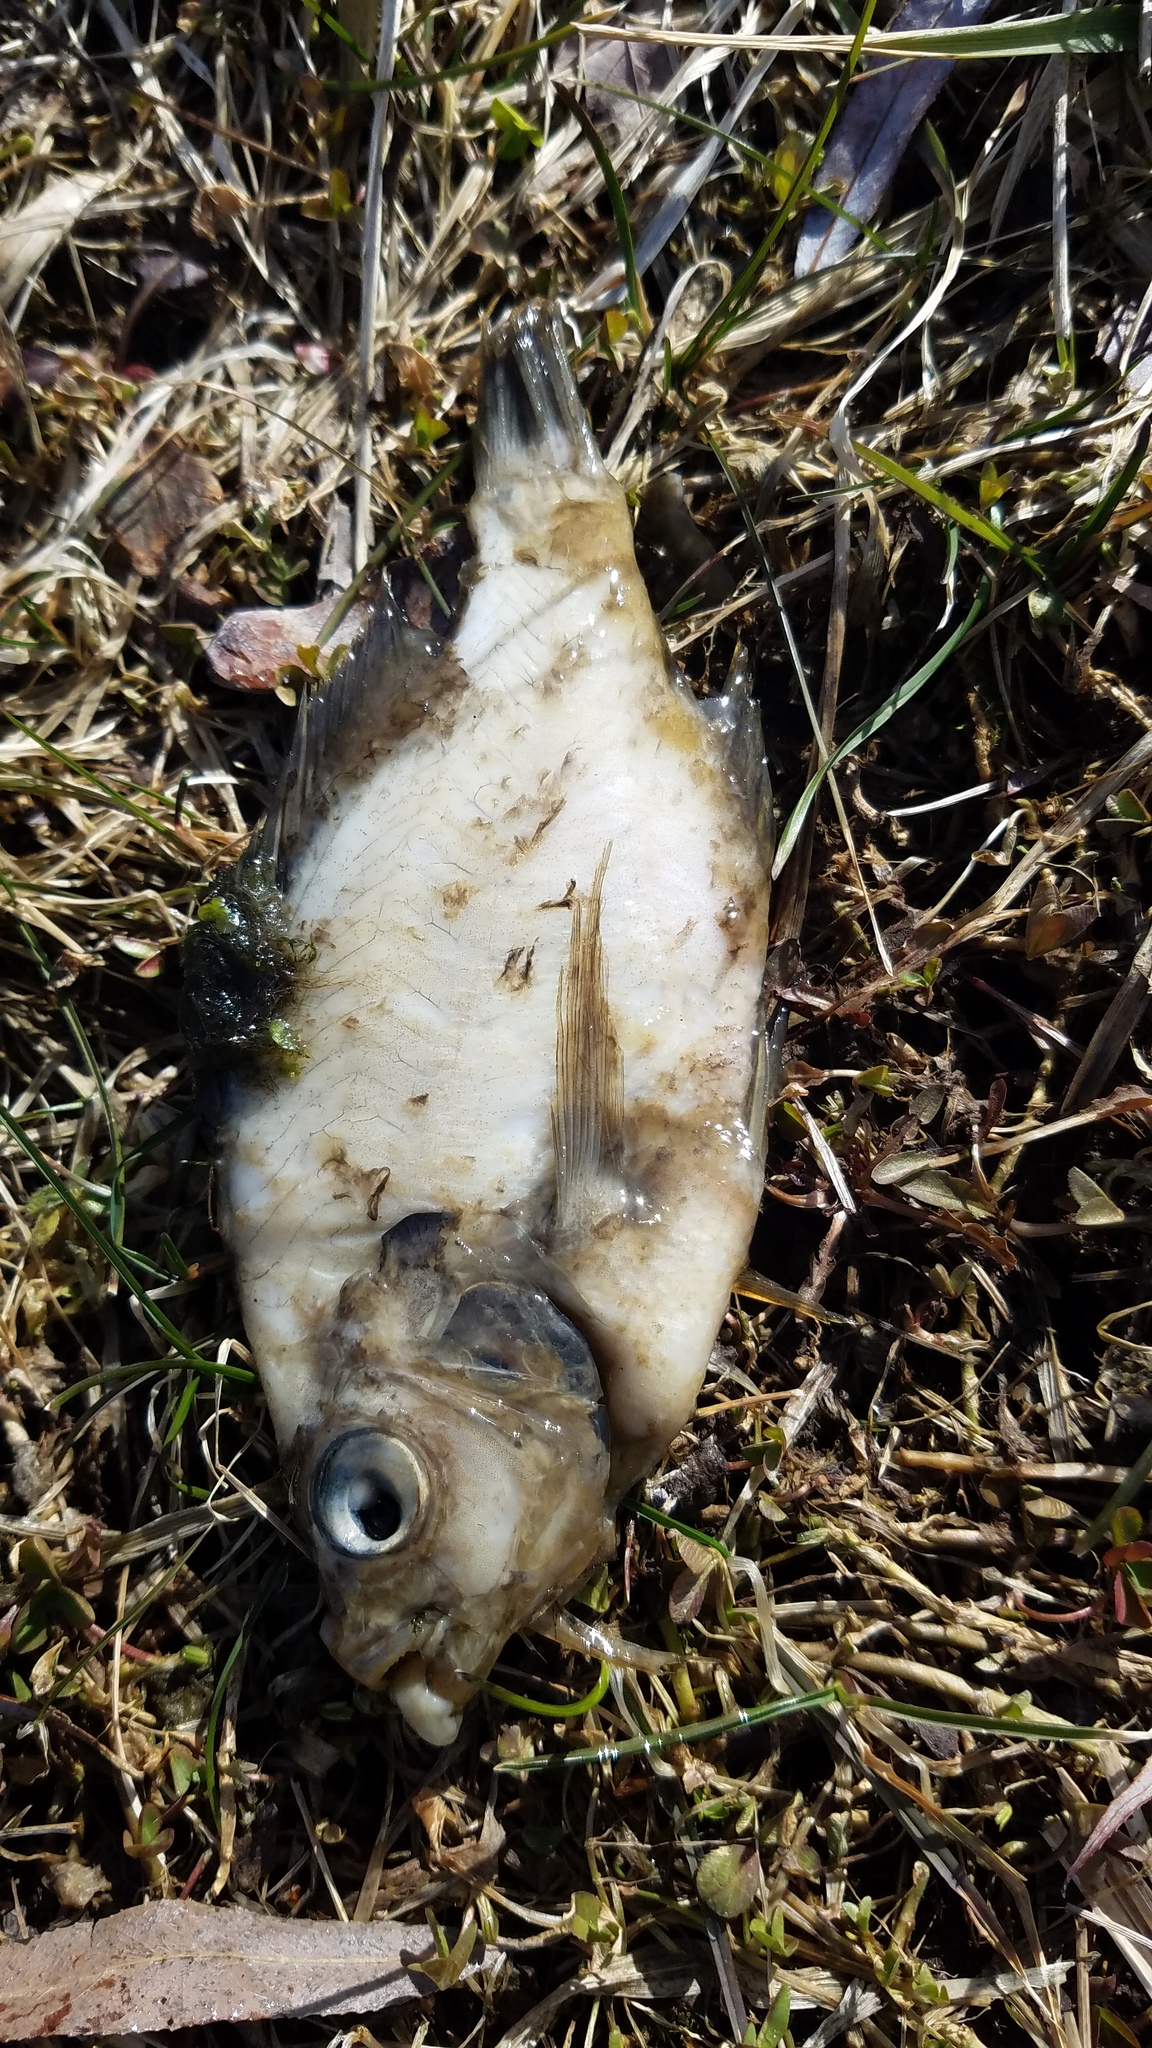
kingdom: Animalia
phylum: Chordata
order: Perciformes
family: Centrarchidae
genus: Lepomis
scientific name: Lepomis
